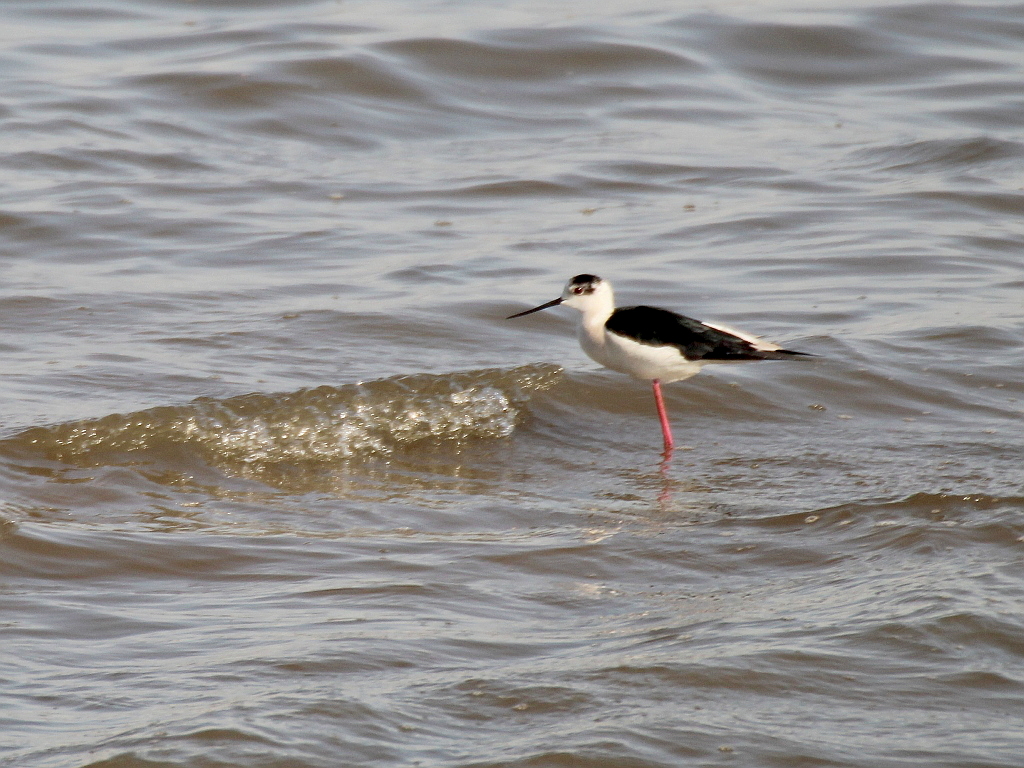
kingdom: Animalia
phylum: Chordata
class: Aves
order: Charadriiformes
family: Recurvirostridae
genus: Himantopus
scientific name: Himantopus himantopus
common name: Black-winged stilt
